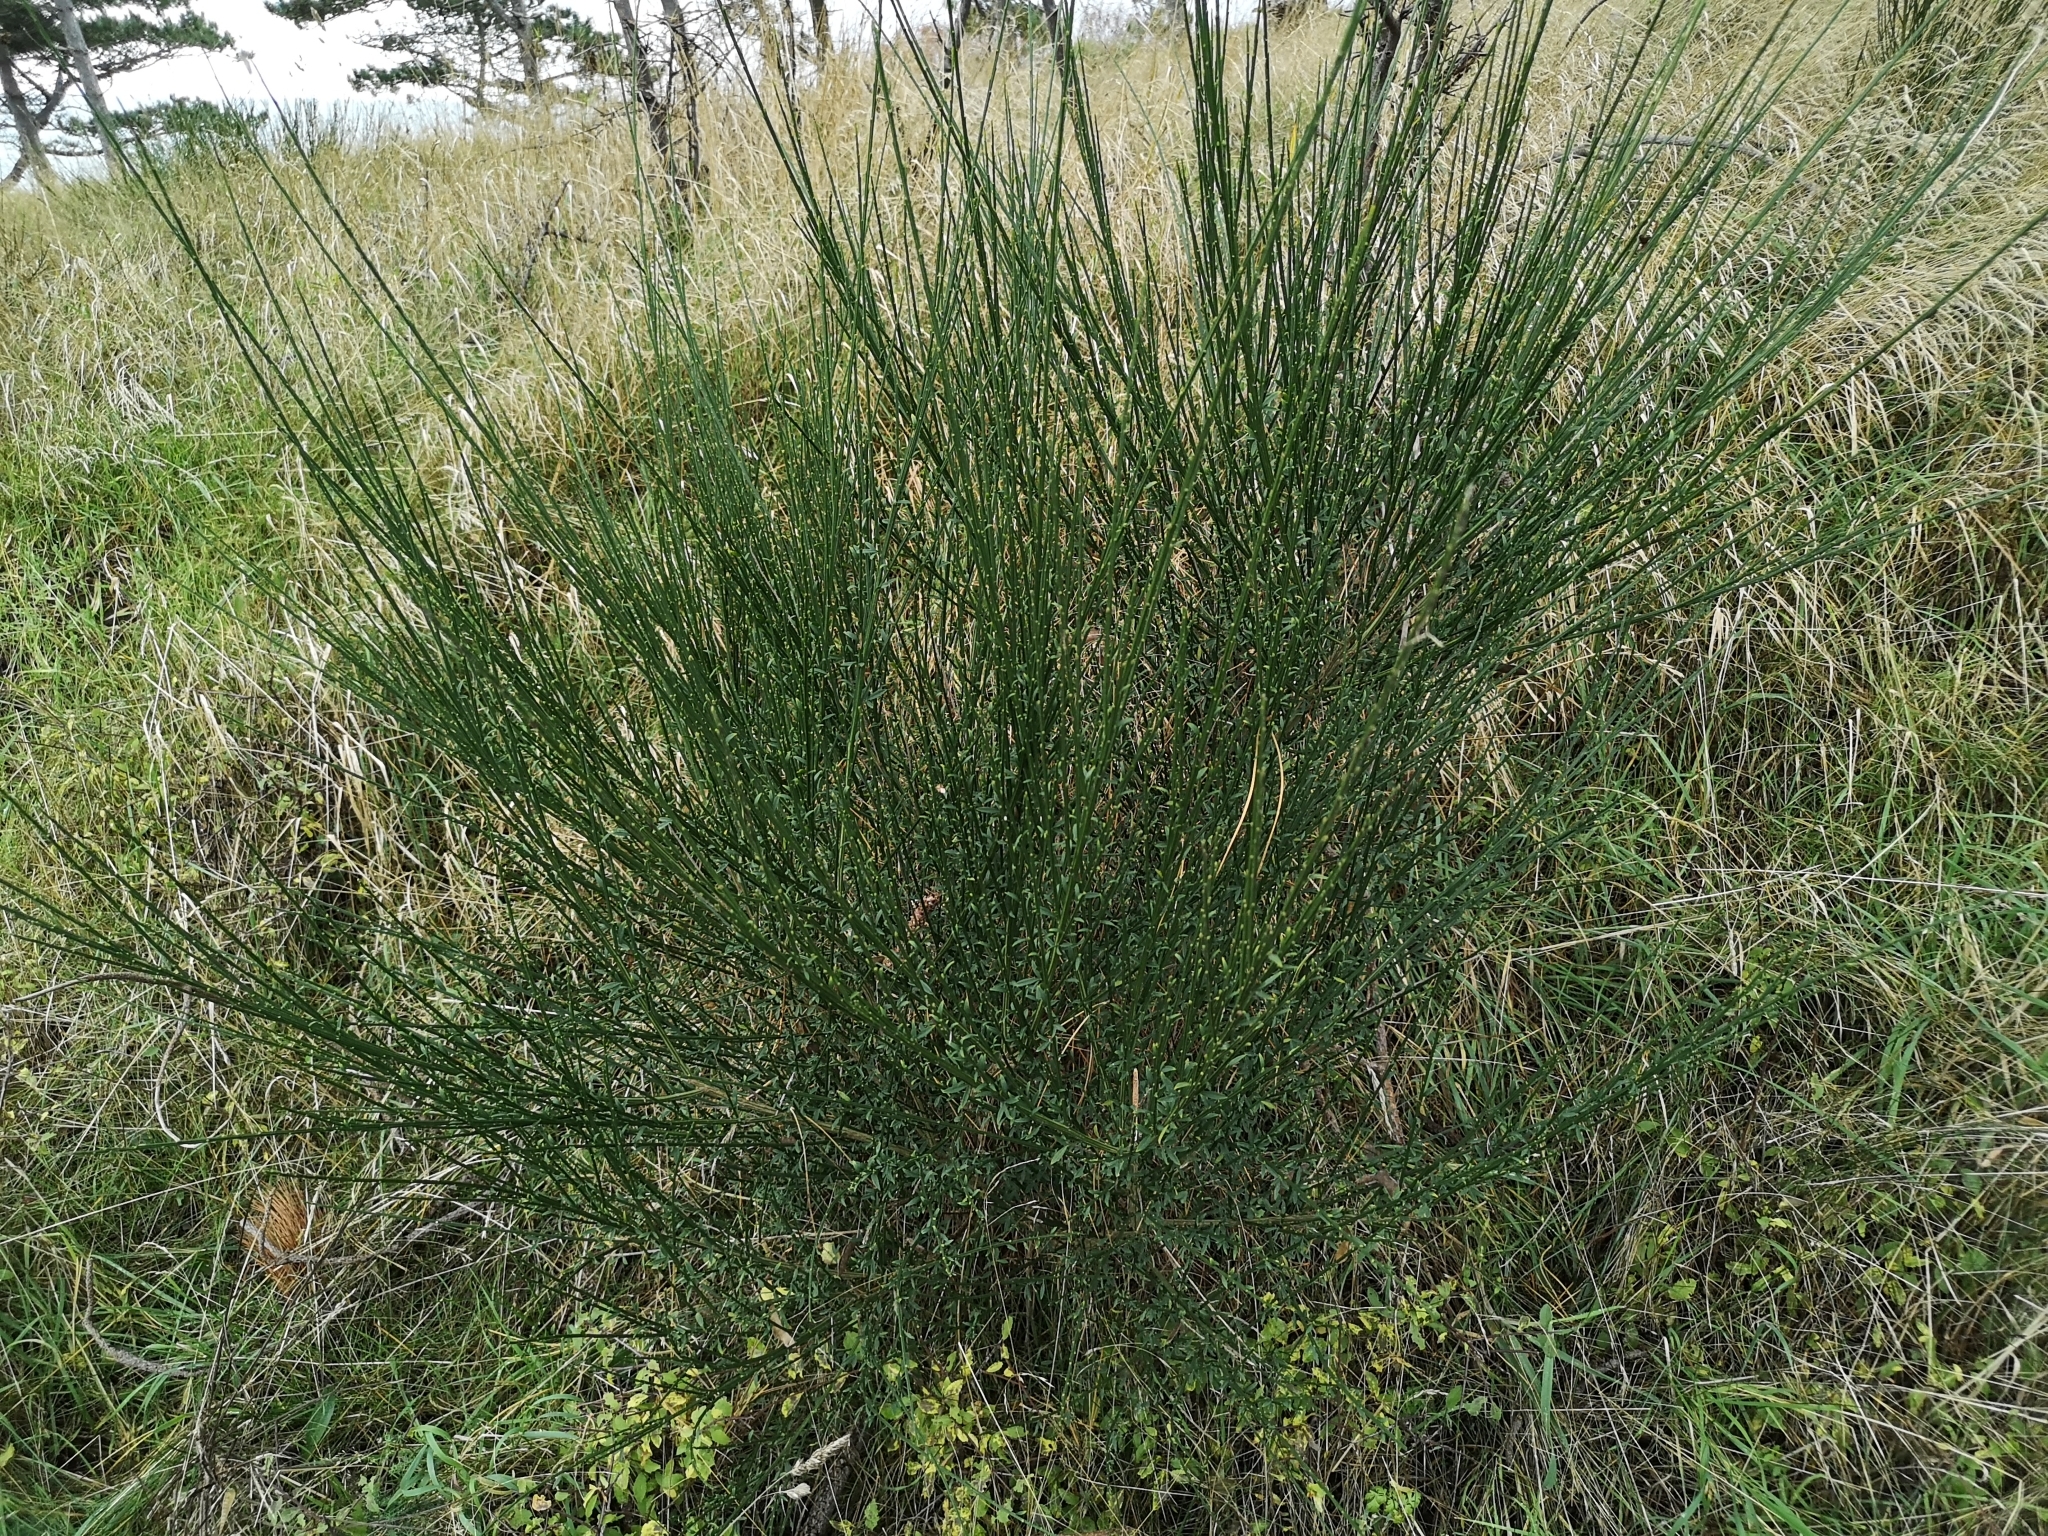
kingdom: Plantae
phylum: Tracheophyta
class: Magnoliopsida
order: Fabales
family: Fabaceae
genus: Cytisus
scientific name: Cytisus scoparius
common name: Scotch broom
